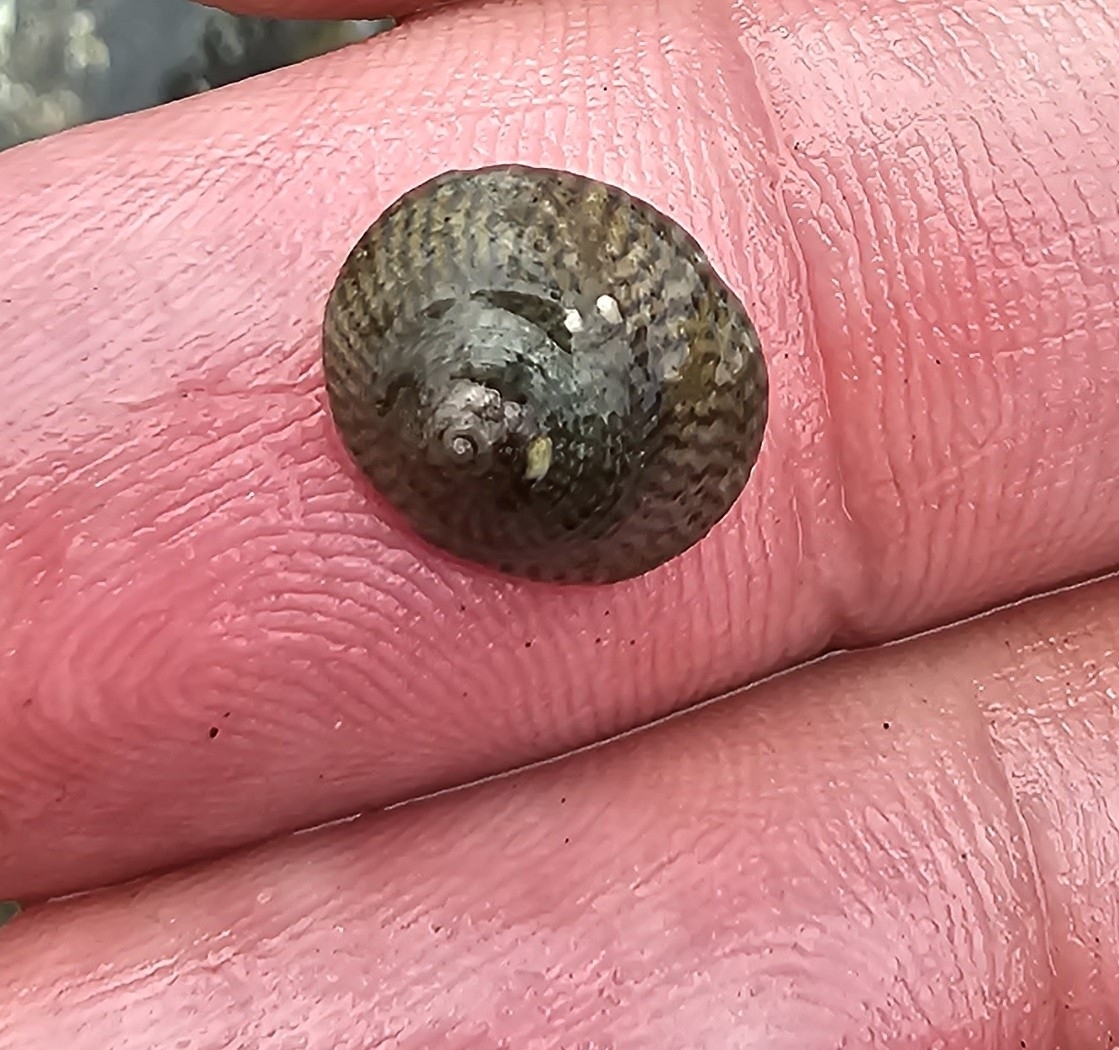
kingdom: Animalia
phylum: Mollusca
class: Gastropoda
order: Trochida
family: Trochidae
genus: Steromphala
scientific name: Steromphala cineraria
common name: Grey top shell
